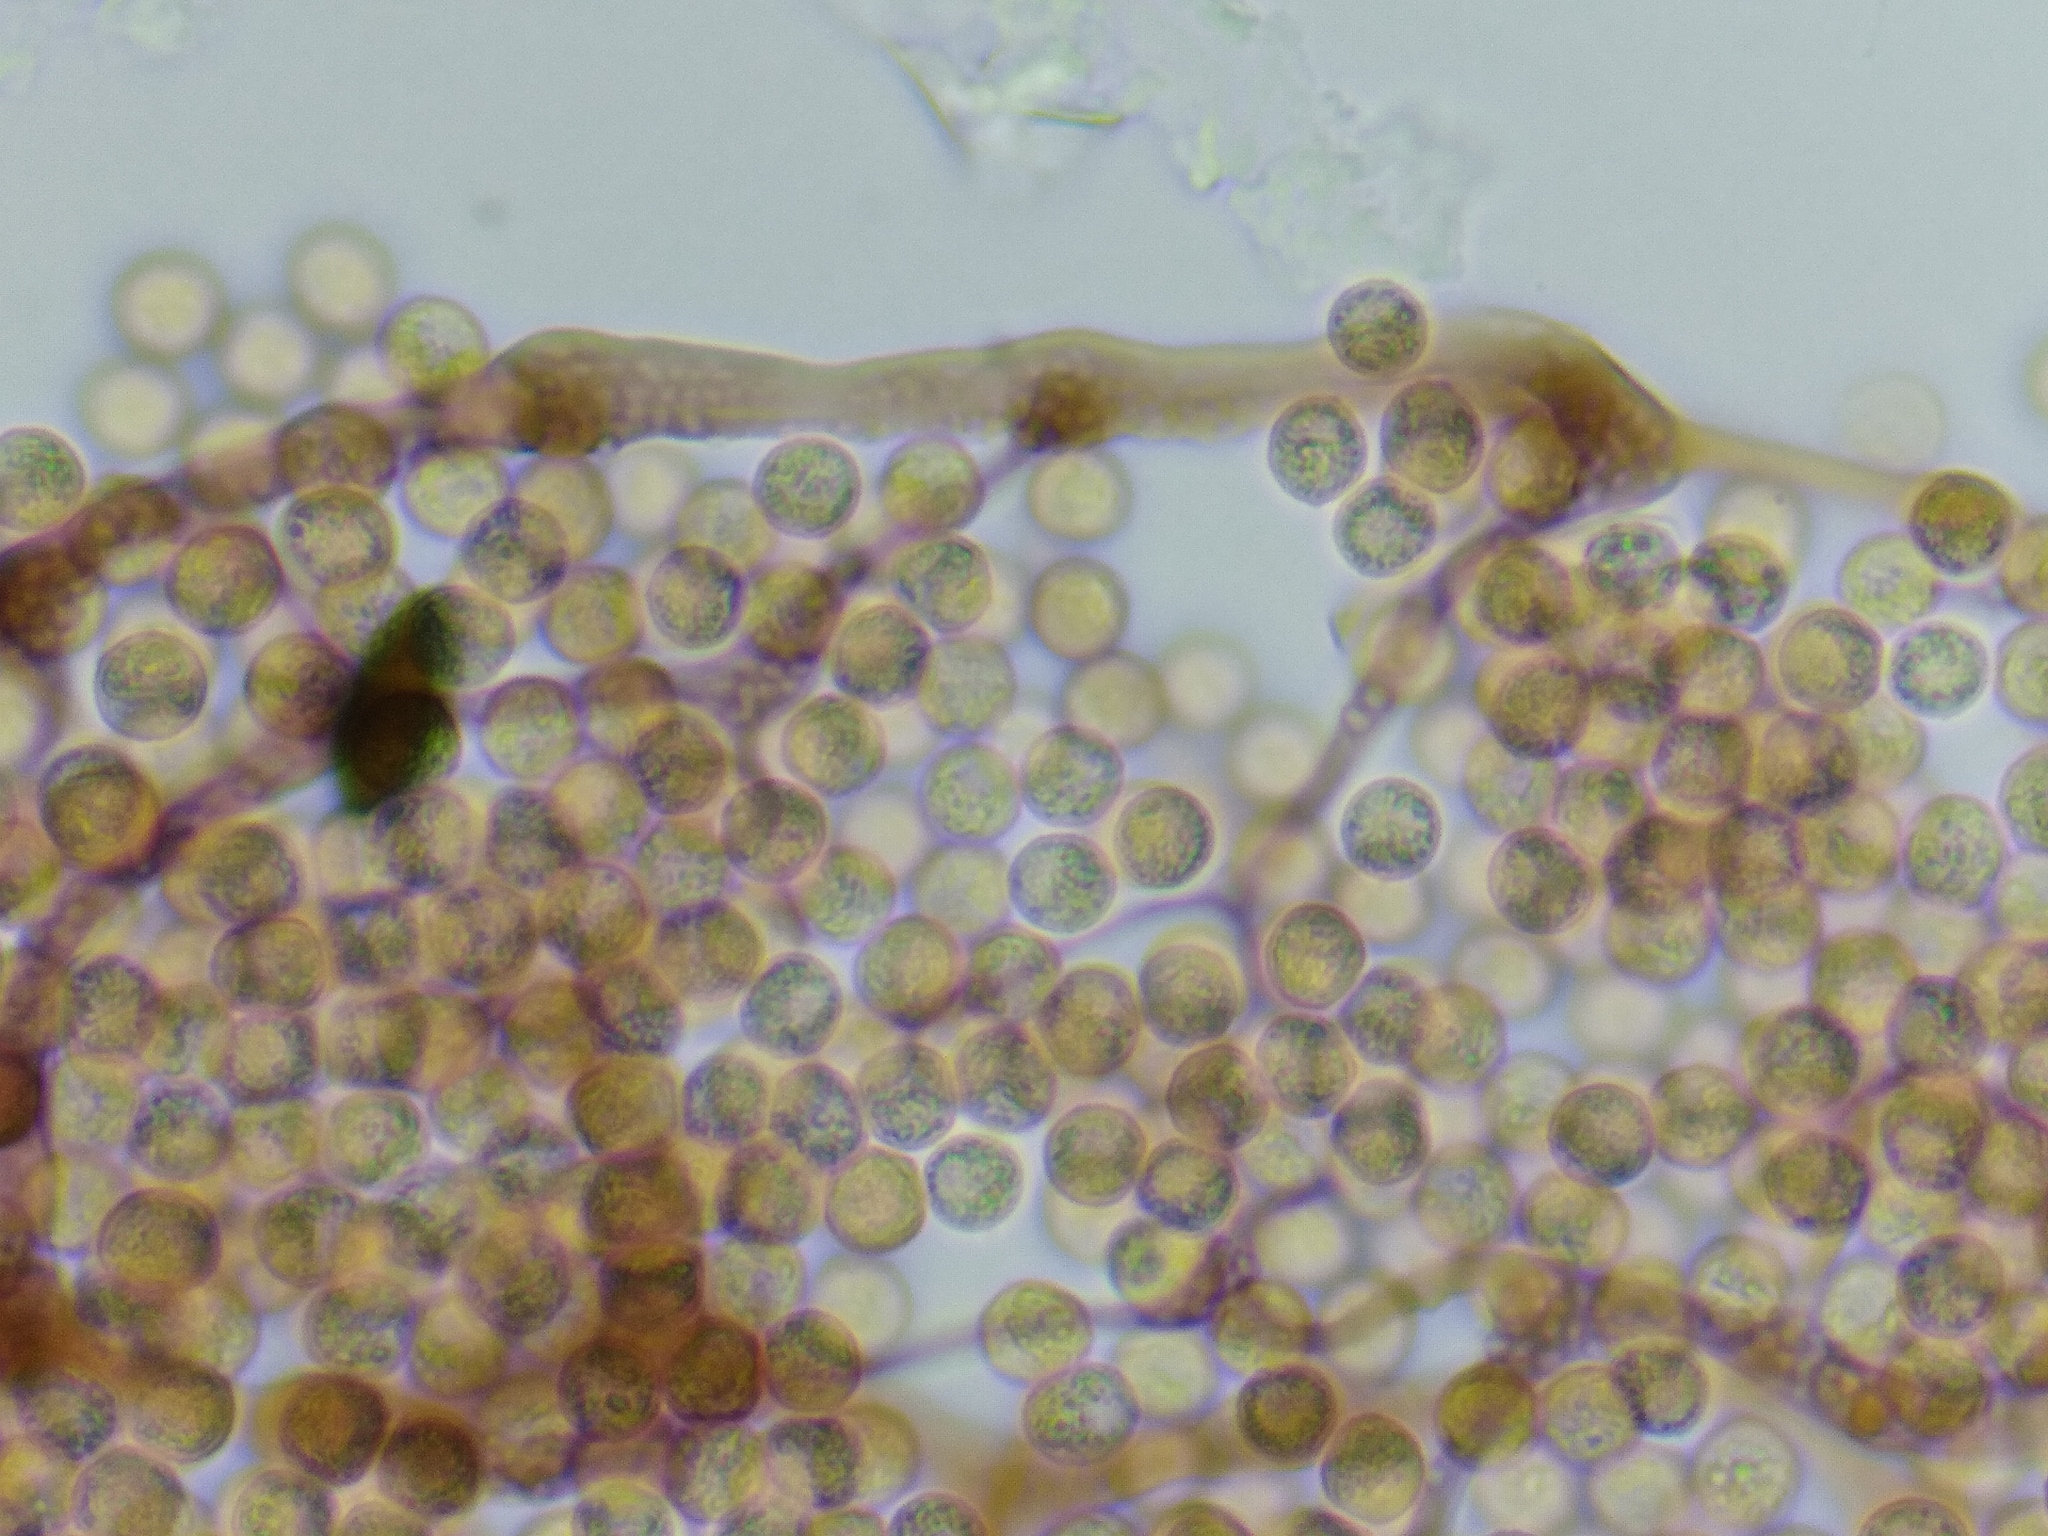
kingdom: Protozoa
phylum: Mycetozoa
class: Myxomycetes
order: Cribrariales
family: Cribrariaceae
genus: Cribraria
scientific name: Cribraria splendens
